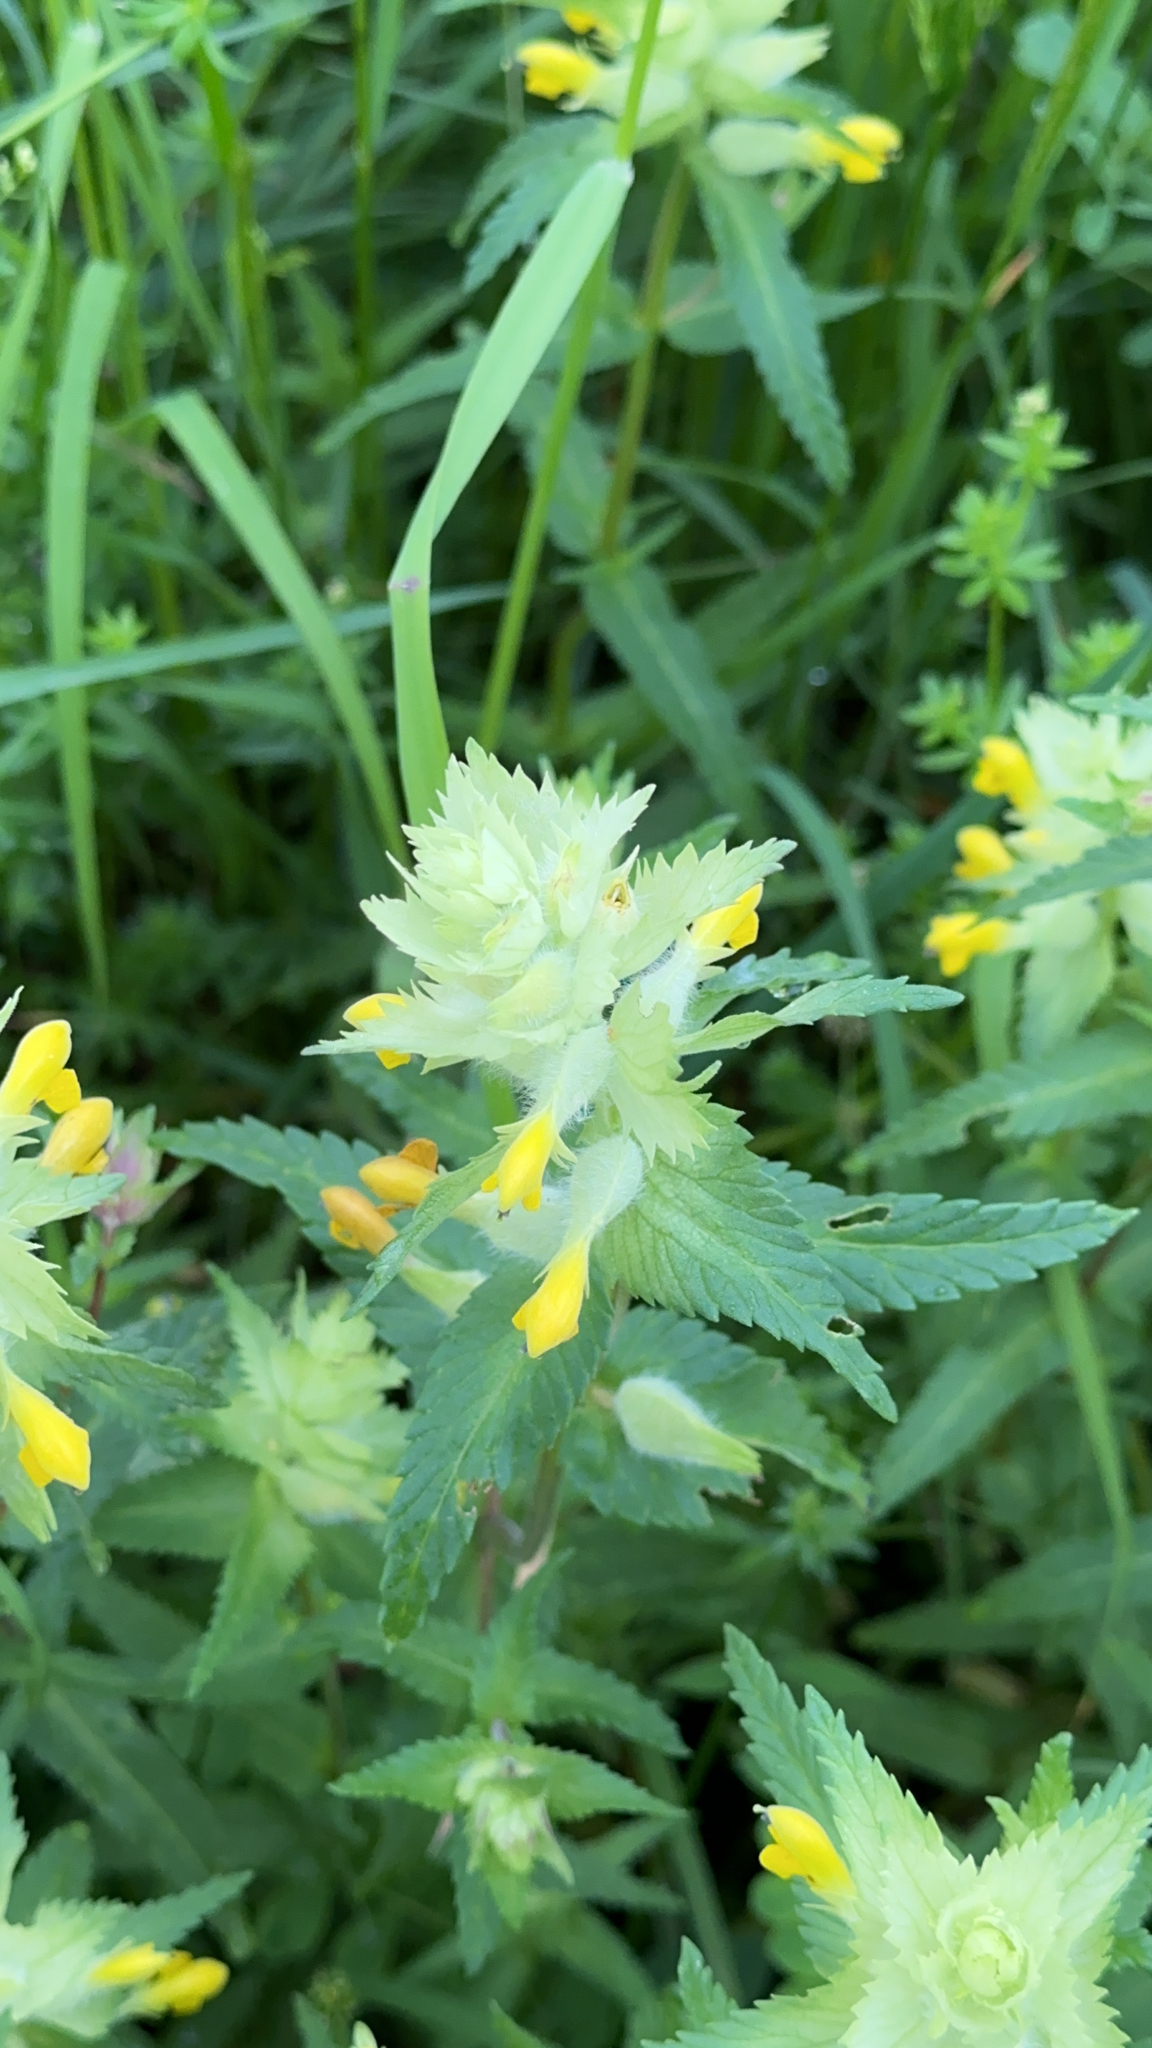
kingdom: Plantae
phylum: Tracheophyta
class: Magnoliopsida
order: Lamiales
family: Orobanchaceae
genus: Rhinanthus
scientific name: Rhinanthus alectorolophus
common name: Greater yellow-rattle
